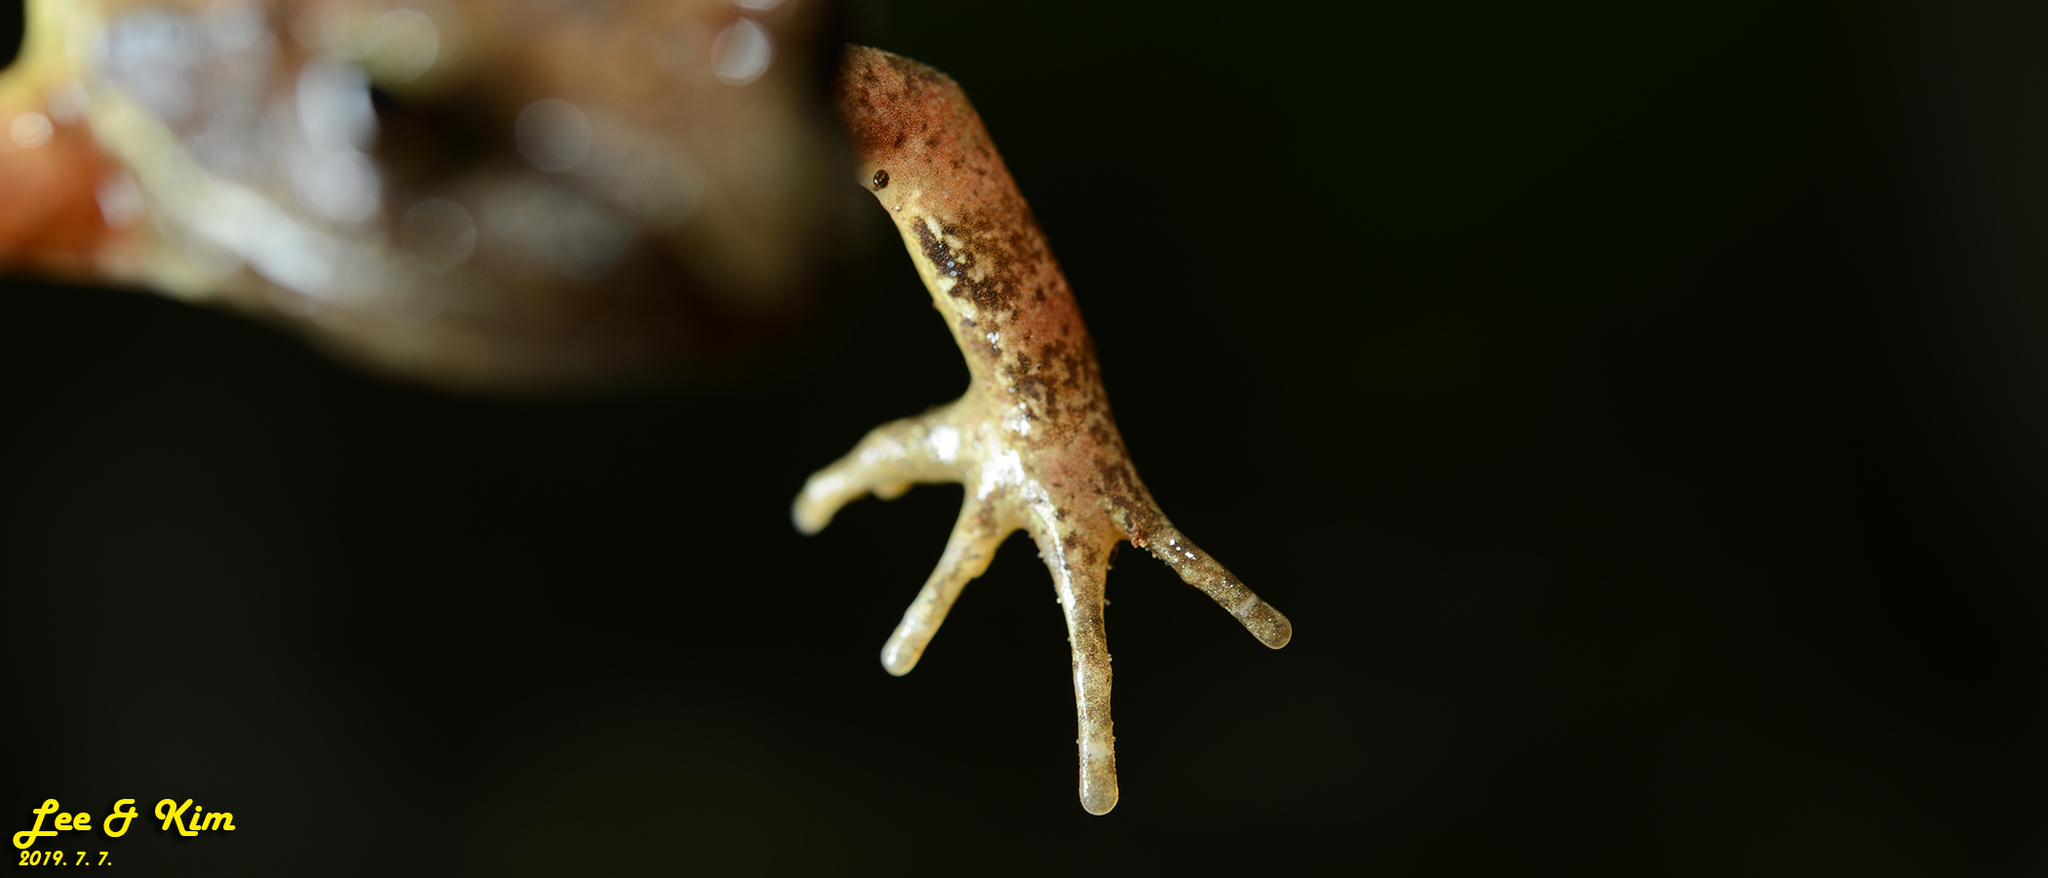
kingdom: Animalia
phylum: Chordata
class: Amphibia
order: Anura
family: Ranidae
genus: Rana
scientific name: Rana huanrenensis
